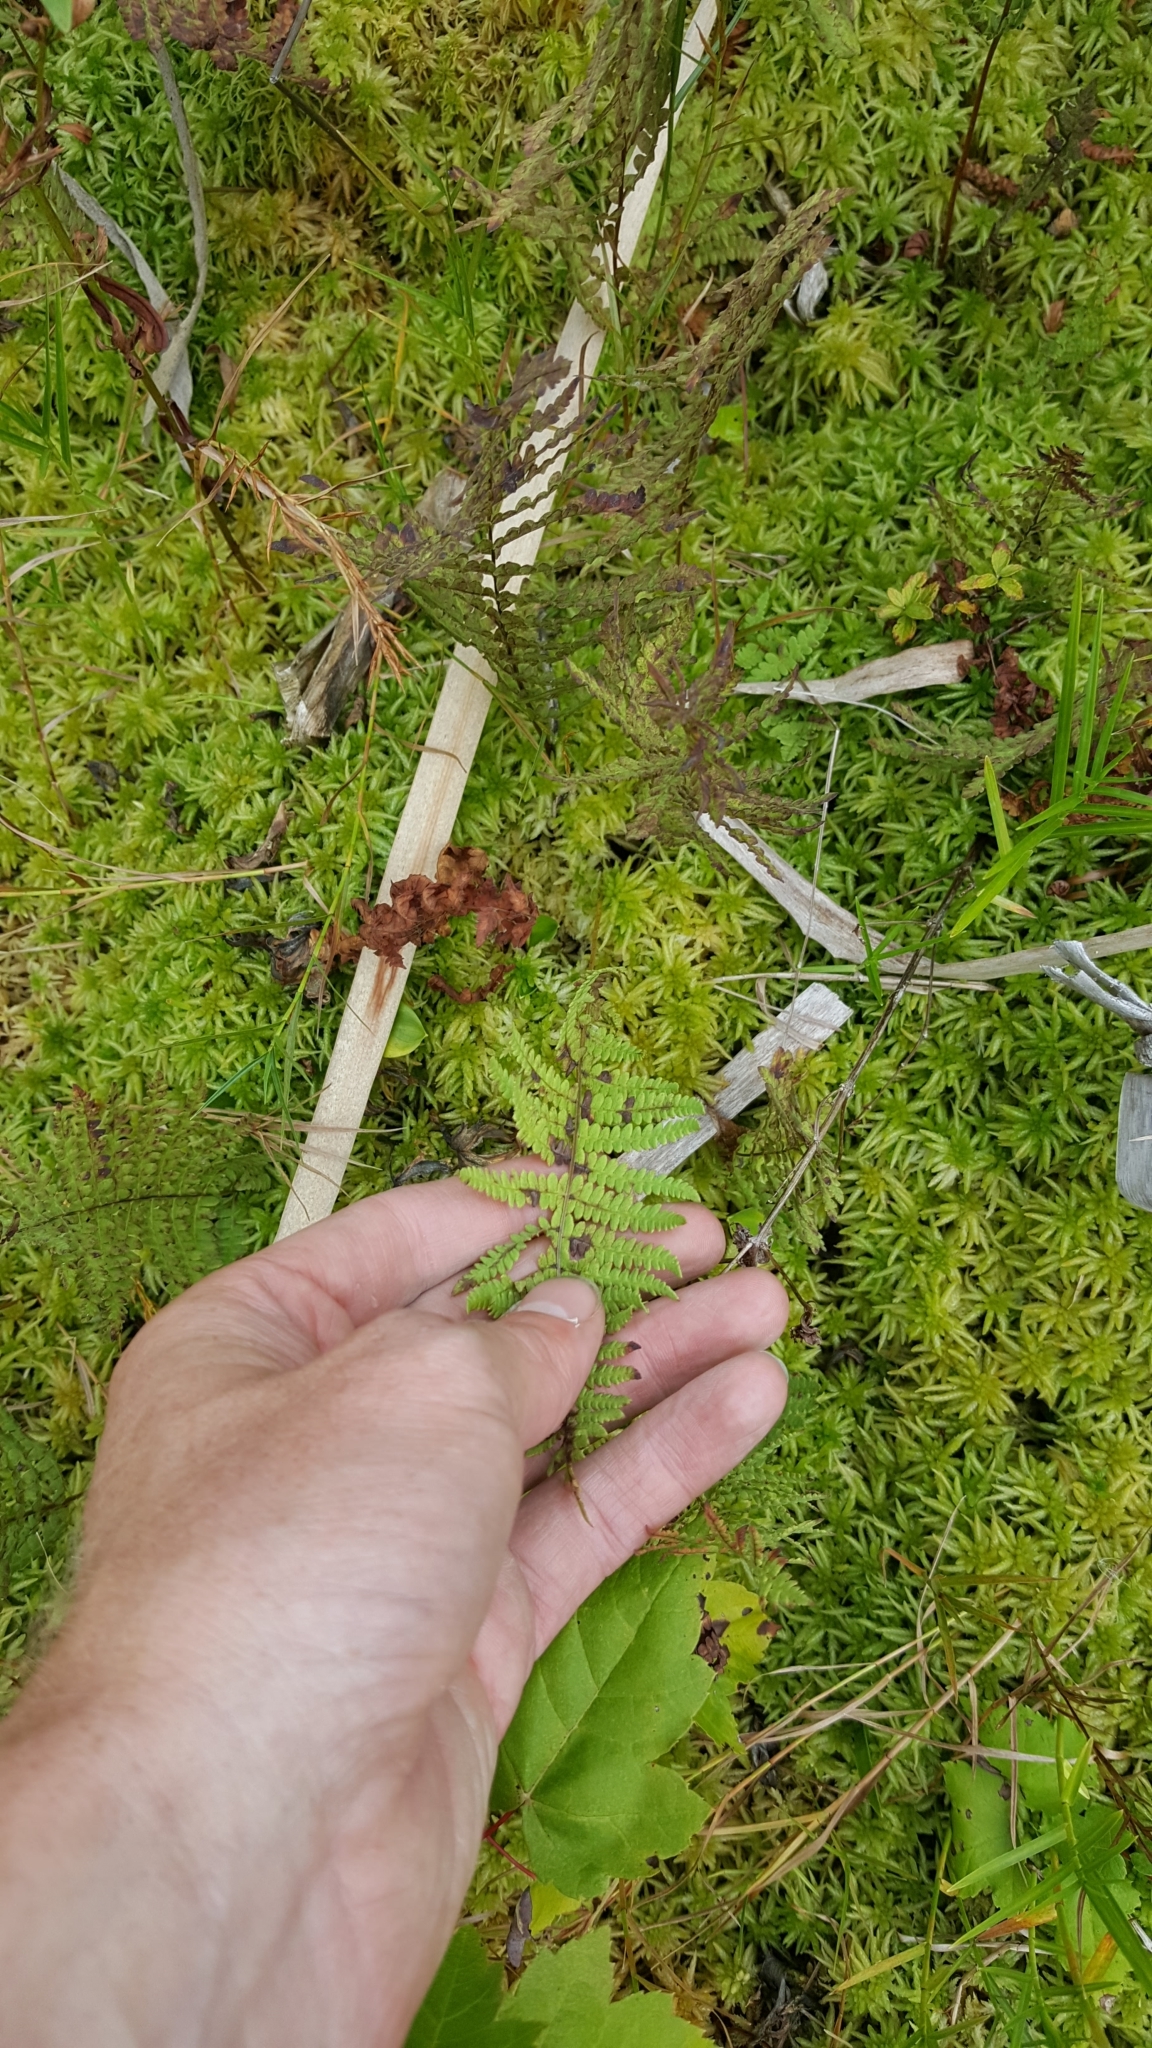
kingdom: Plantae
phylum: Tracheophyta
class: Polypodiopsida
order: Polypodiales
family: Thelypteridaceae
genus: Thelypteris
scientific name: Thelypteris palustris
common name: Marsh fern
